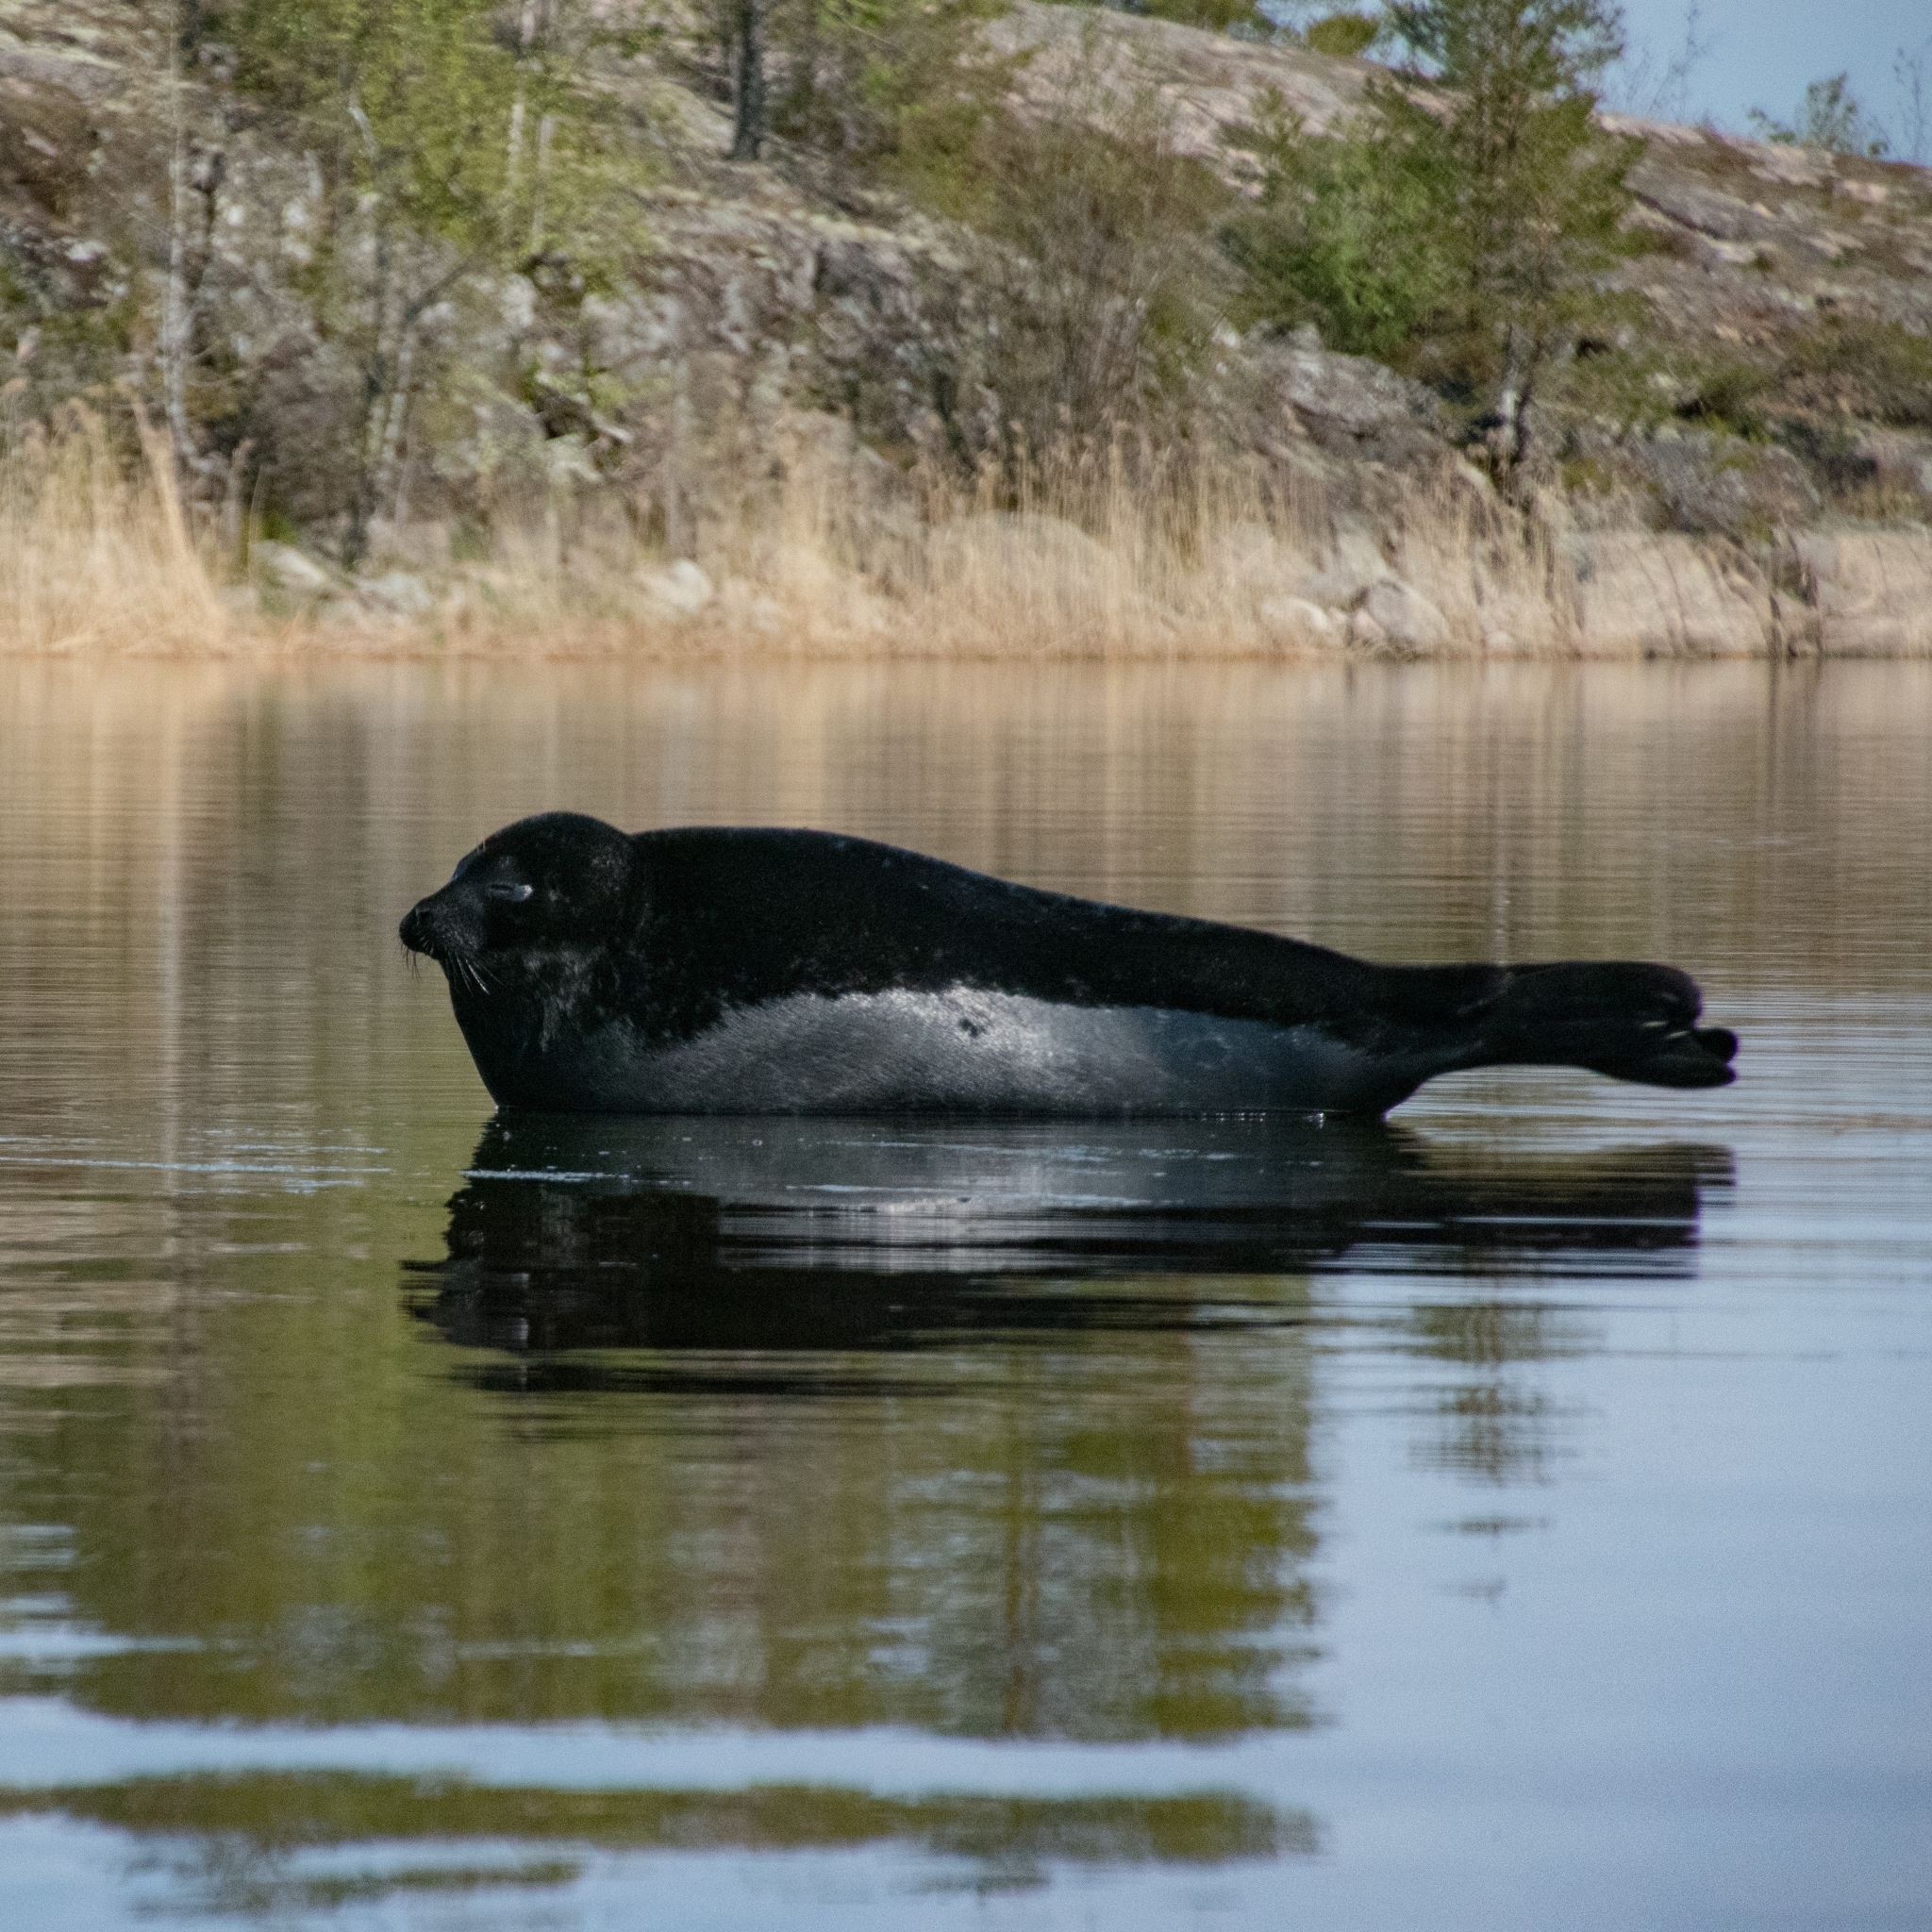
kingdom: Animalia
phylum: Chordata
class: Mammalia
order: Carnivora
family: Phocidae
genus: Pusa
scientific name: Pusa hispida
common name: Ringed seal
